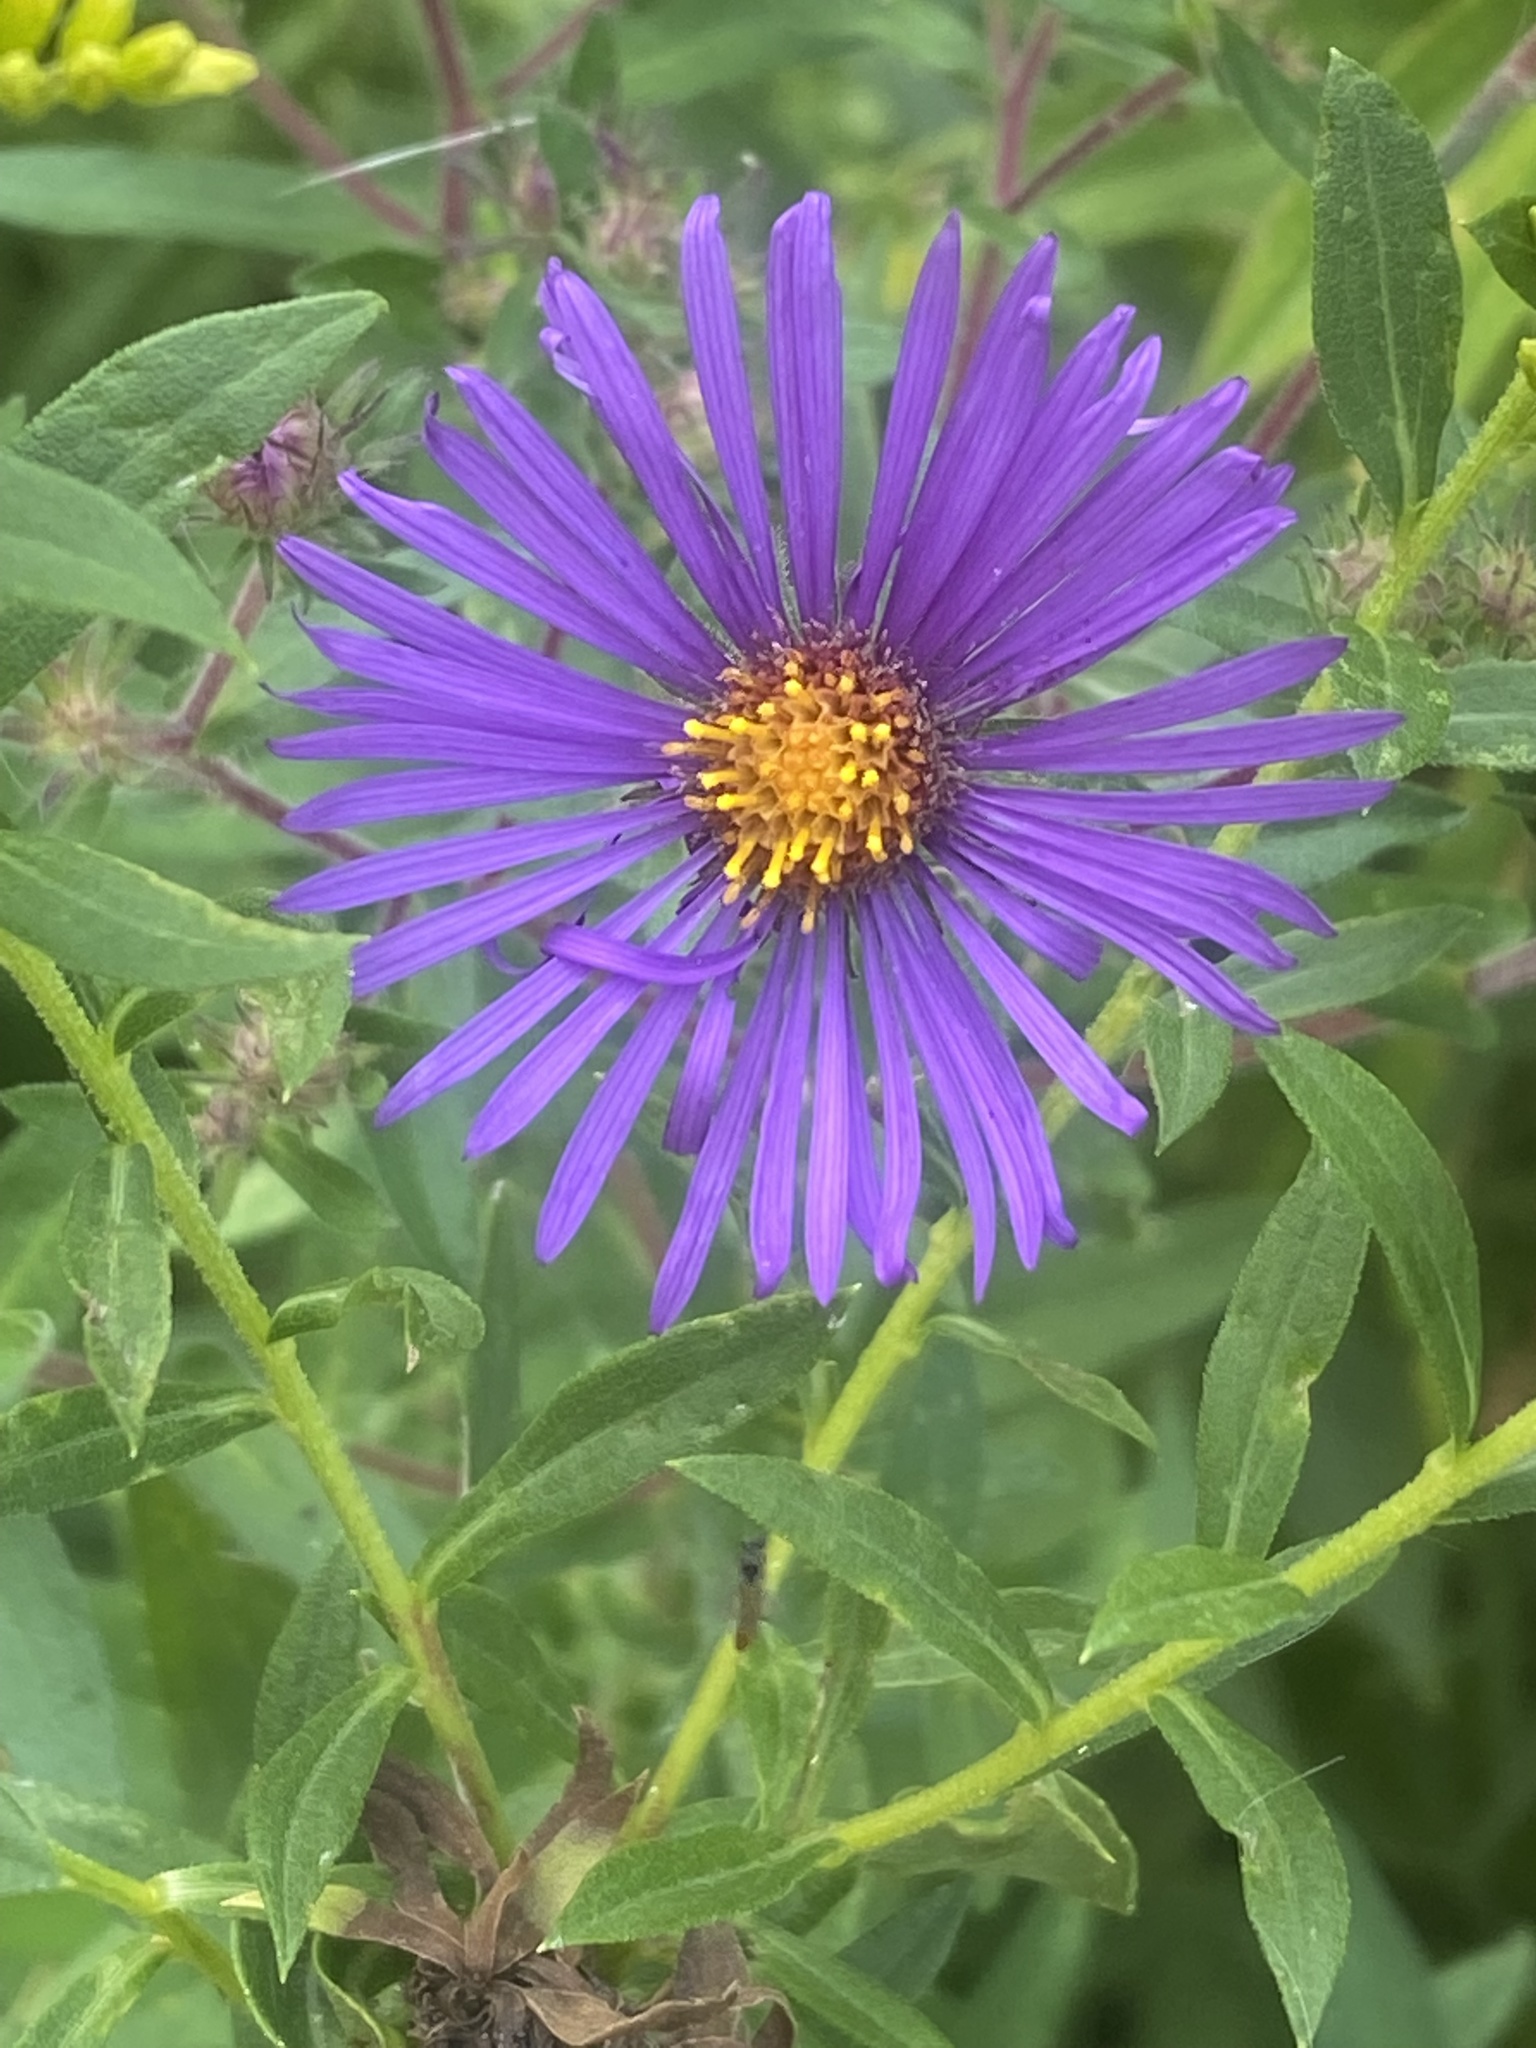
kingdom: Plantae
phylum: Tracheophyta
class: Magnoliopsida
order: Asterales
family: Asteraceae
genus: Symphyotrichum
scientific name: Symphyotrichum novae-angliae
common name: Michaelmas daisy
